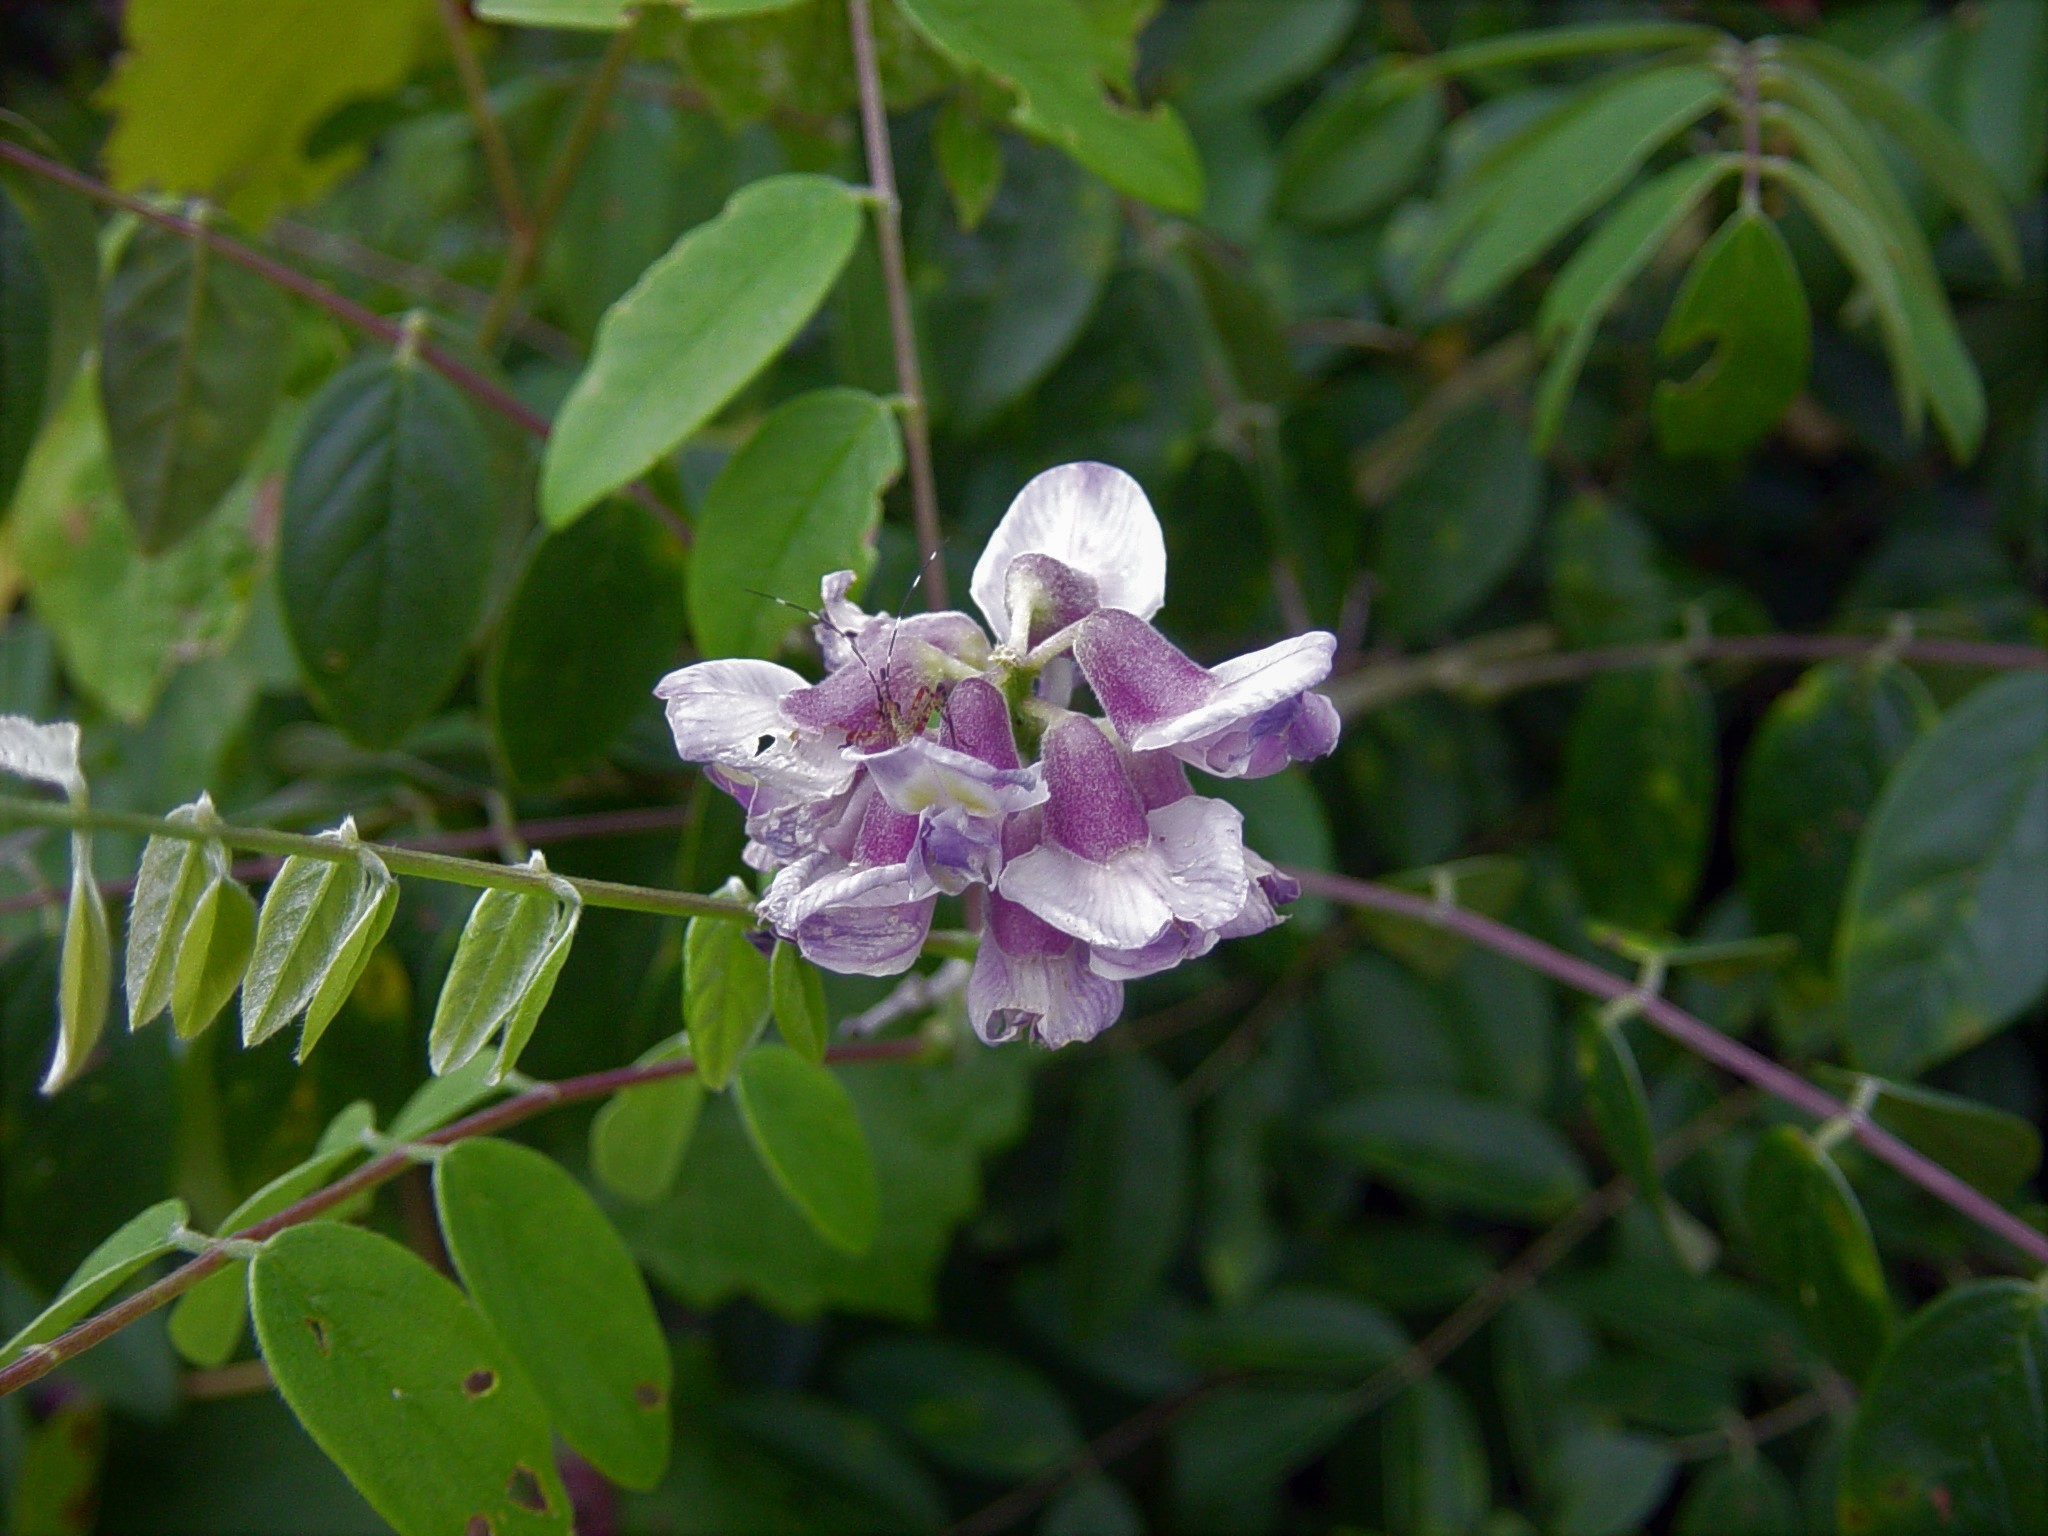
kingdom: Plantae
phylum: Tracheophyta
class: Magnoliopsida
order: Fabales
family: Fabaceae
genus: Wisteria
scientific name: Wisteria frutescens
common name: American wisteria
